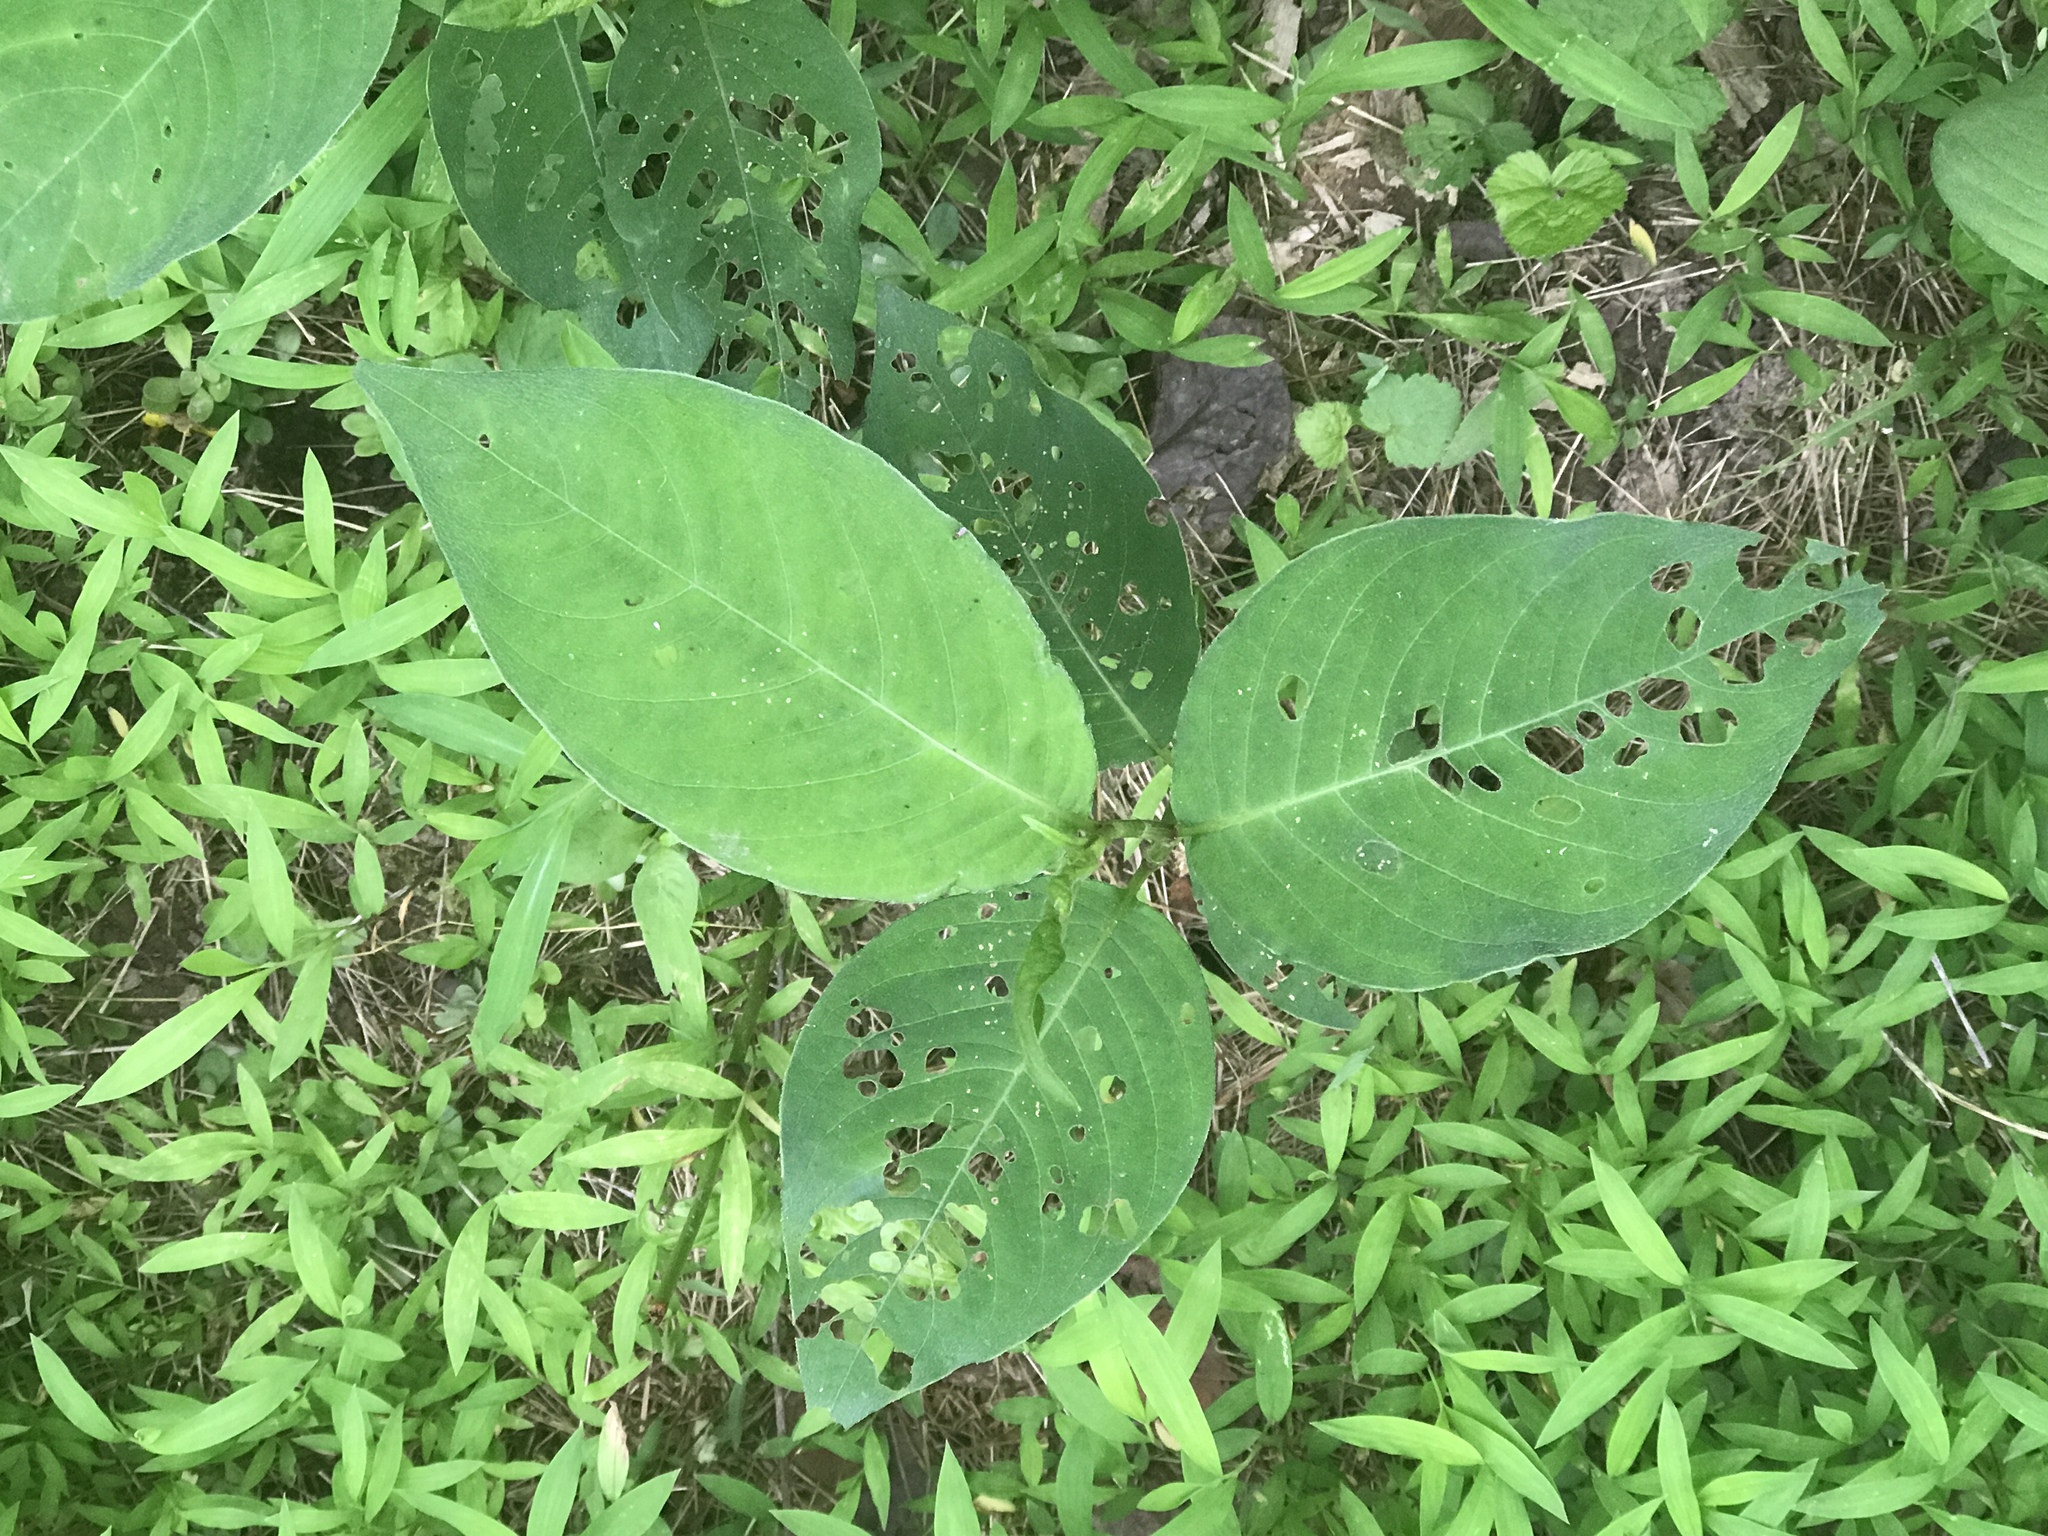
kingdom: Plantae
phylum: Tracheophyta
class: Magnoliopsida
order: Caryophyllales
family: Polygonaceae
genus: Persicaria
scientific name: Persicaria virginiana
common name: Jumpseed
